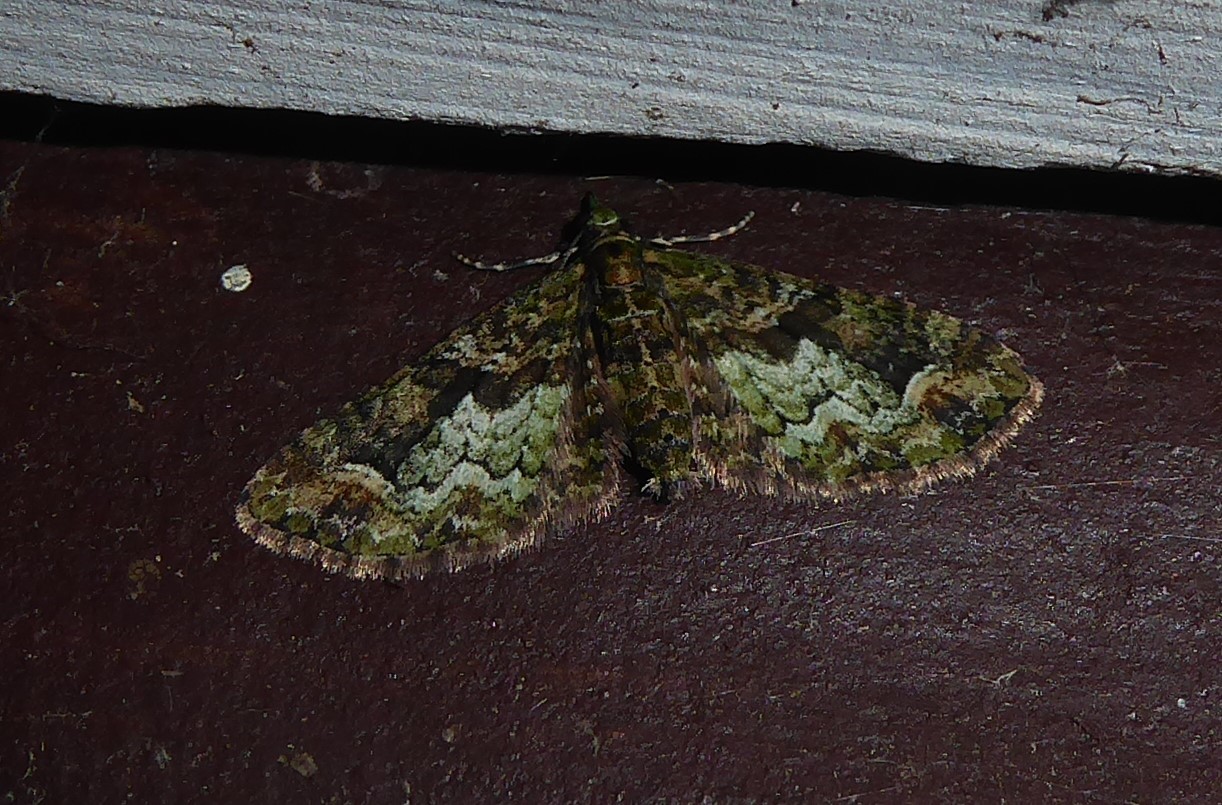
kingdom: Animalia
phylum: Arthropoda
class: Insecta
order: Lepidoptera
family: Geometridae
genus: Idaea
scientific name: Idaea mutanda
